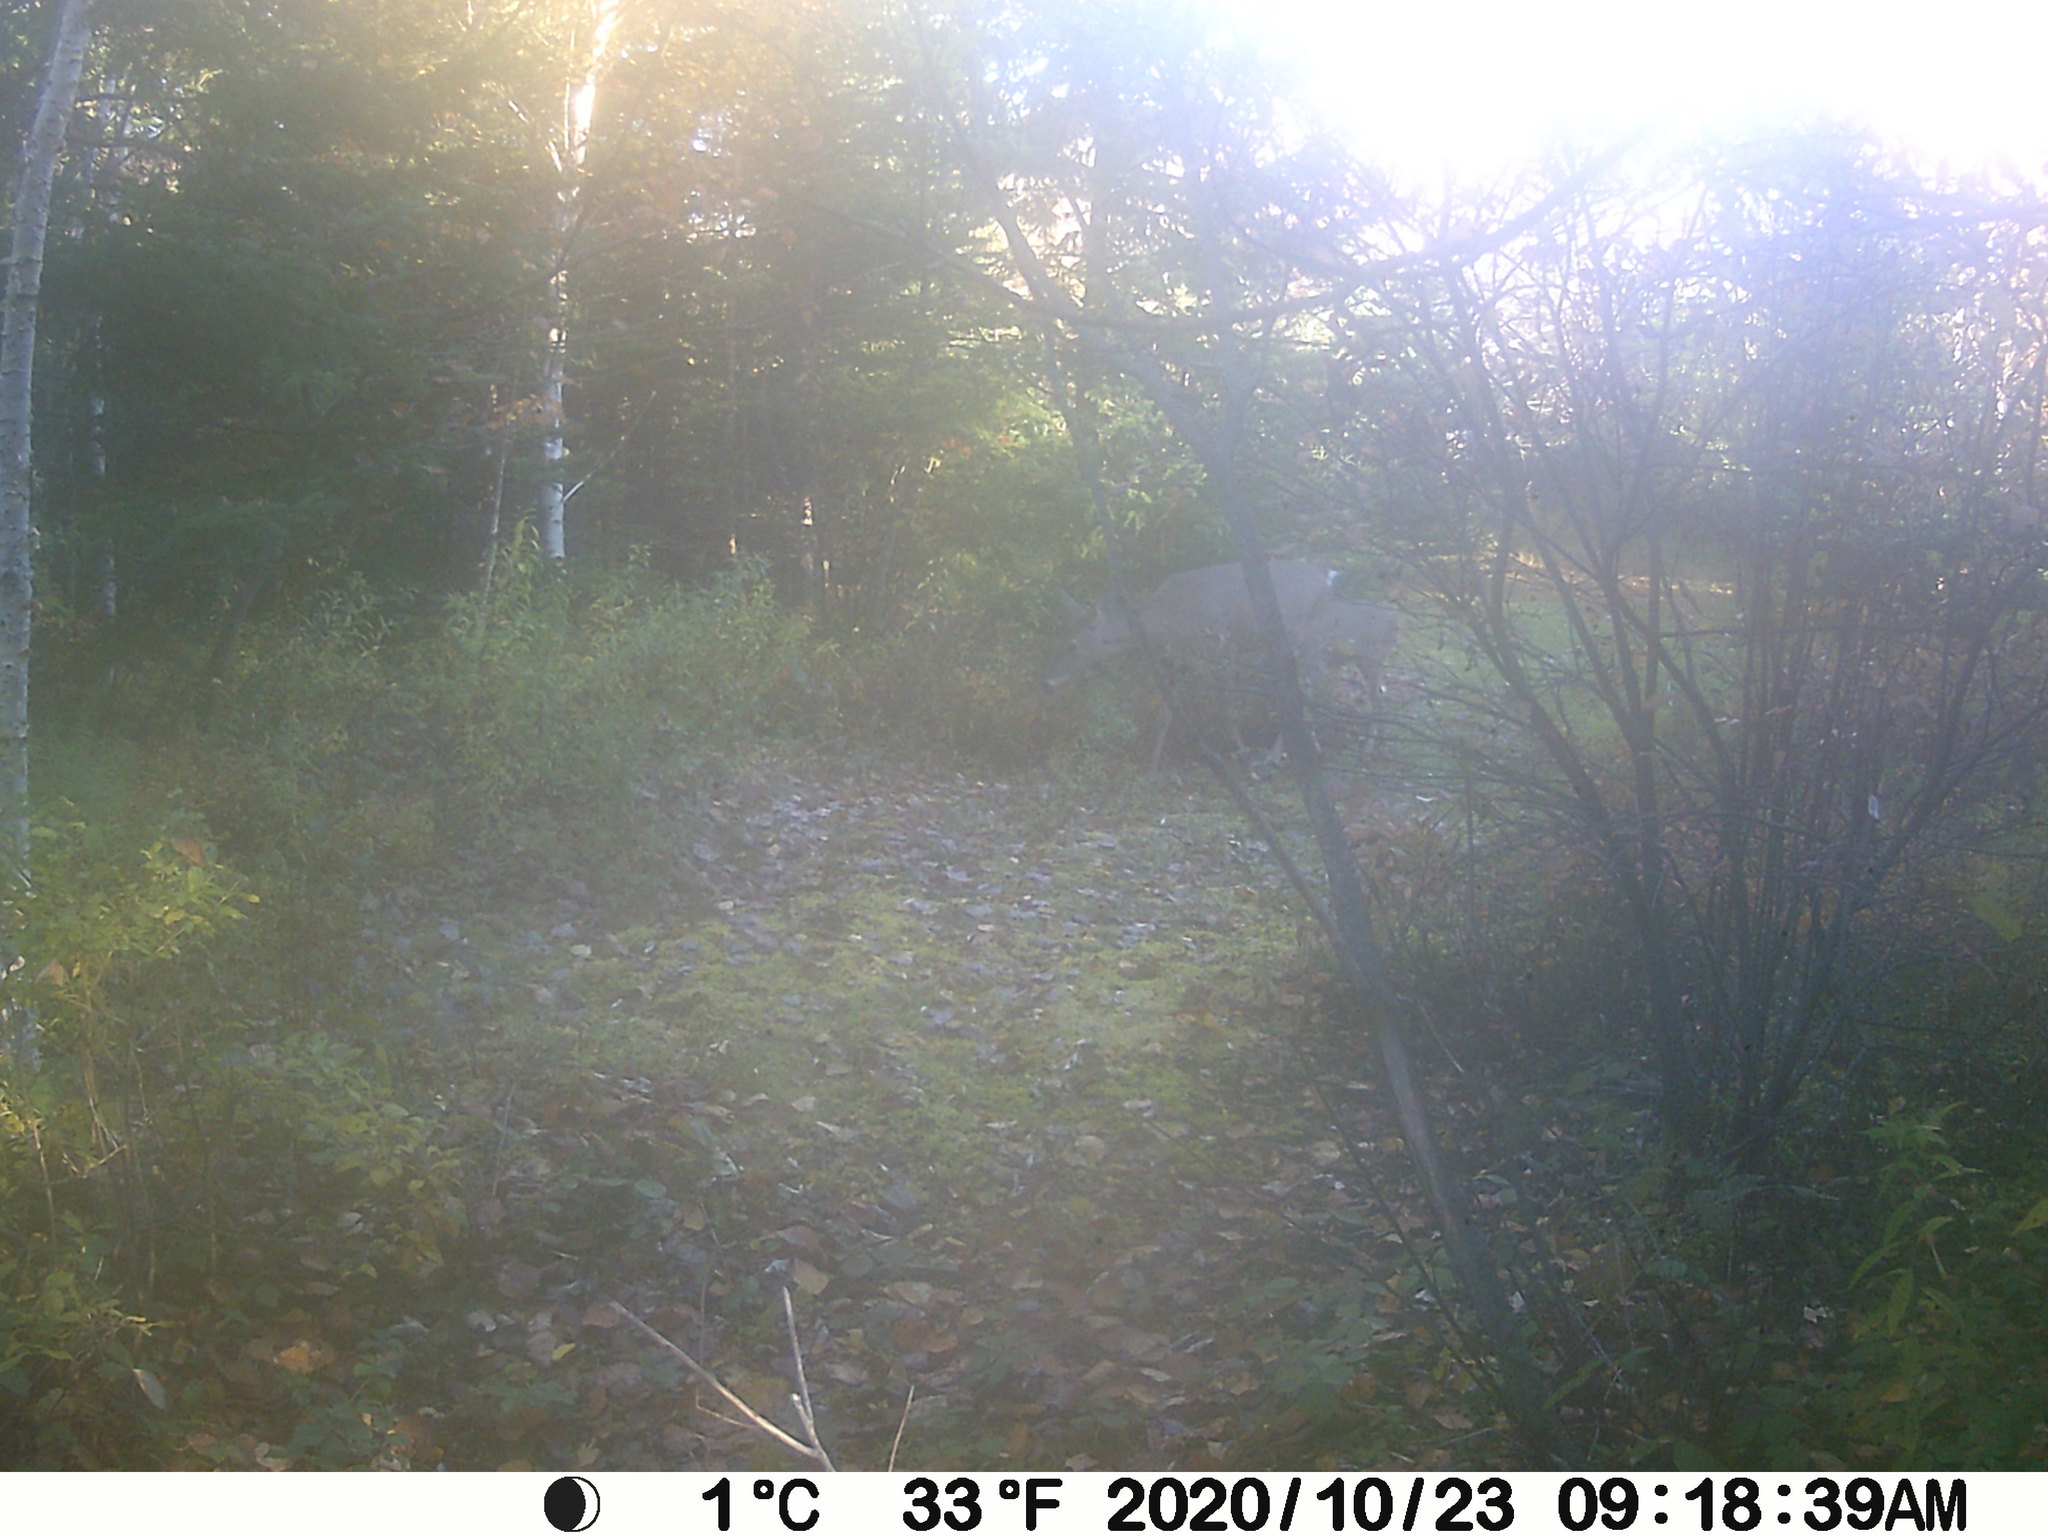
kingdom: Animalia
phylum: Chordata
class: Mammalia
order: Artiodactyla
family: Cervidae
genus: Odocoileus
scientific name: Odocoileus virginianus
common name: White-tailed deer
